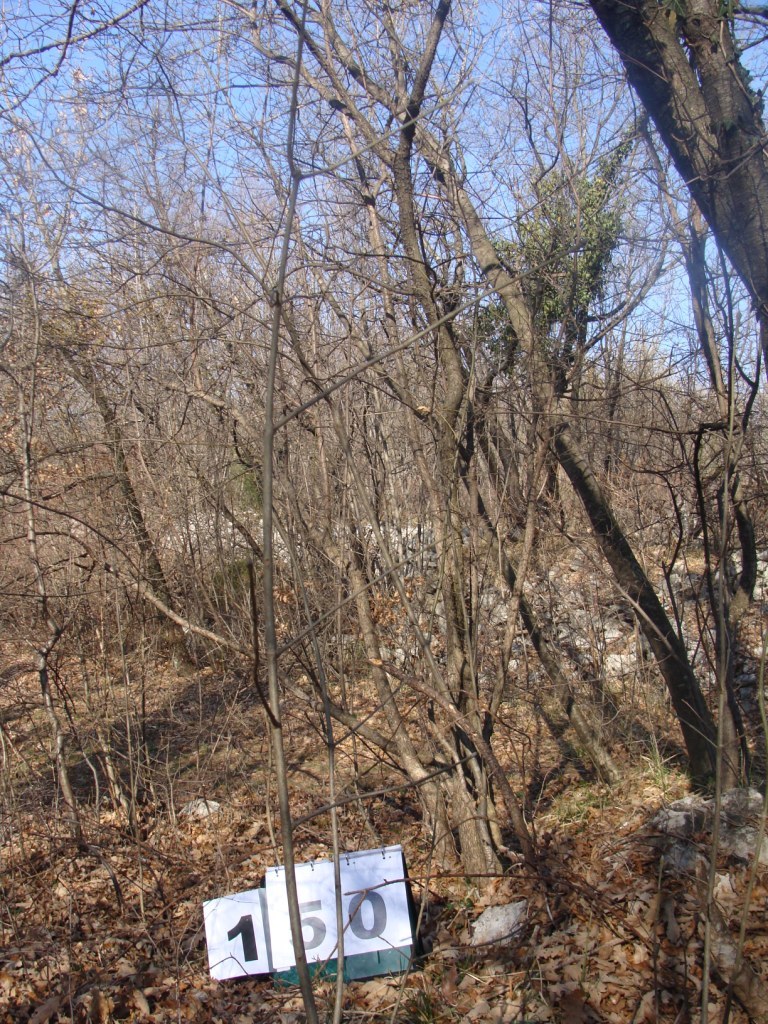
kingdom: Plantae
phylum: Tracheophyta
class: Magnoliopsida
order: Cornales
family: Cornaceae
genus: Cornus
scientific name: Cornus mas
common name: Cornelian-cherry
